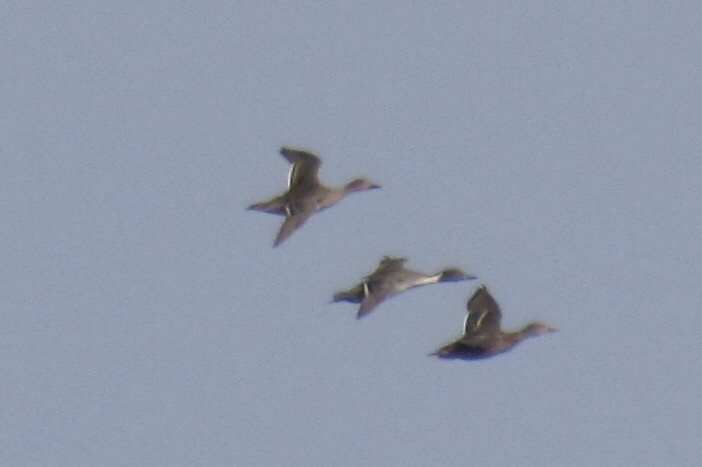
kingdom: Animalia
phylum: Chordata
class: Aves
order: Anseriformes
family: Anatidae
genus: Anas
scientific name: Anas acuta
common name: Northern pintail
